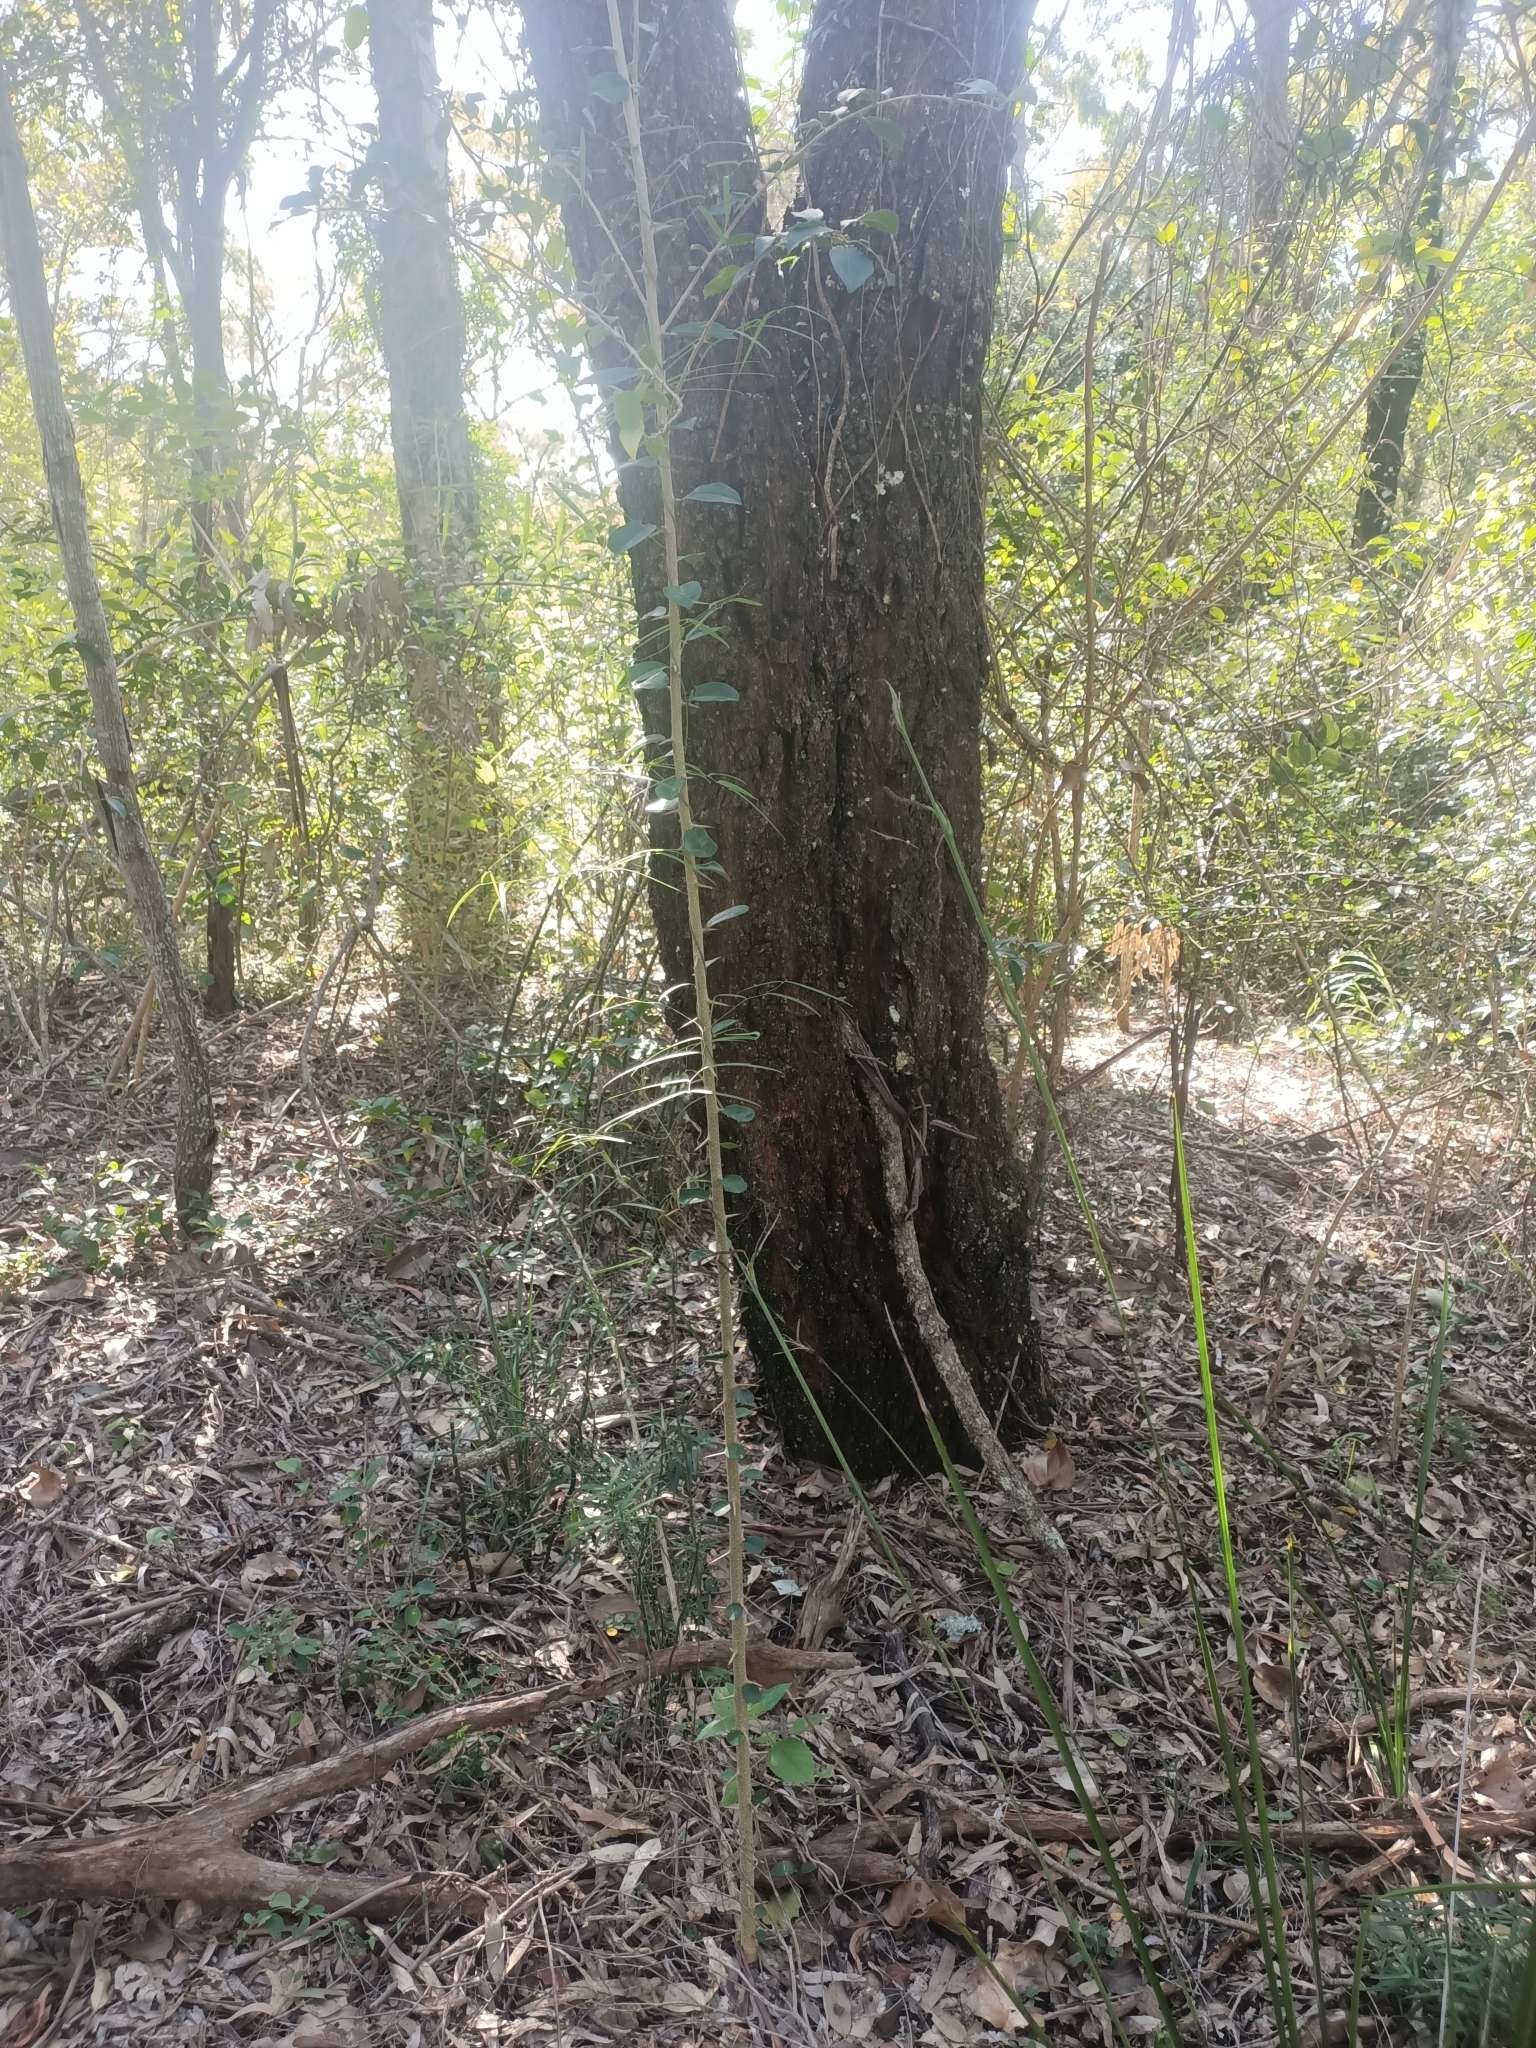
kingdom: Plantae
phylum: Tracheophyta
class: Magnoliopsida
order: Rosales
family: Moraceae
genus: Maclura
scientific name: Maclura cochinchinensis
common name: Cockspurthorn
